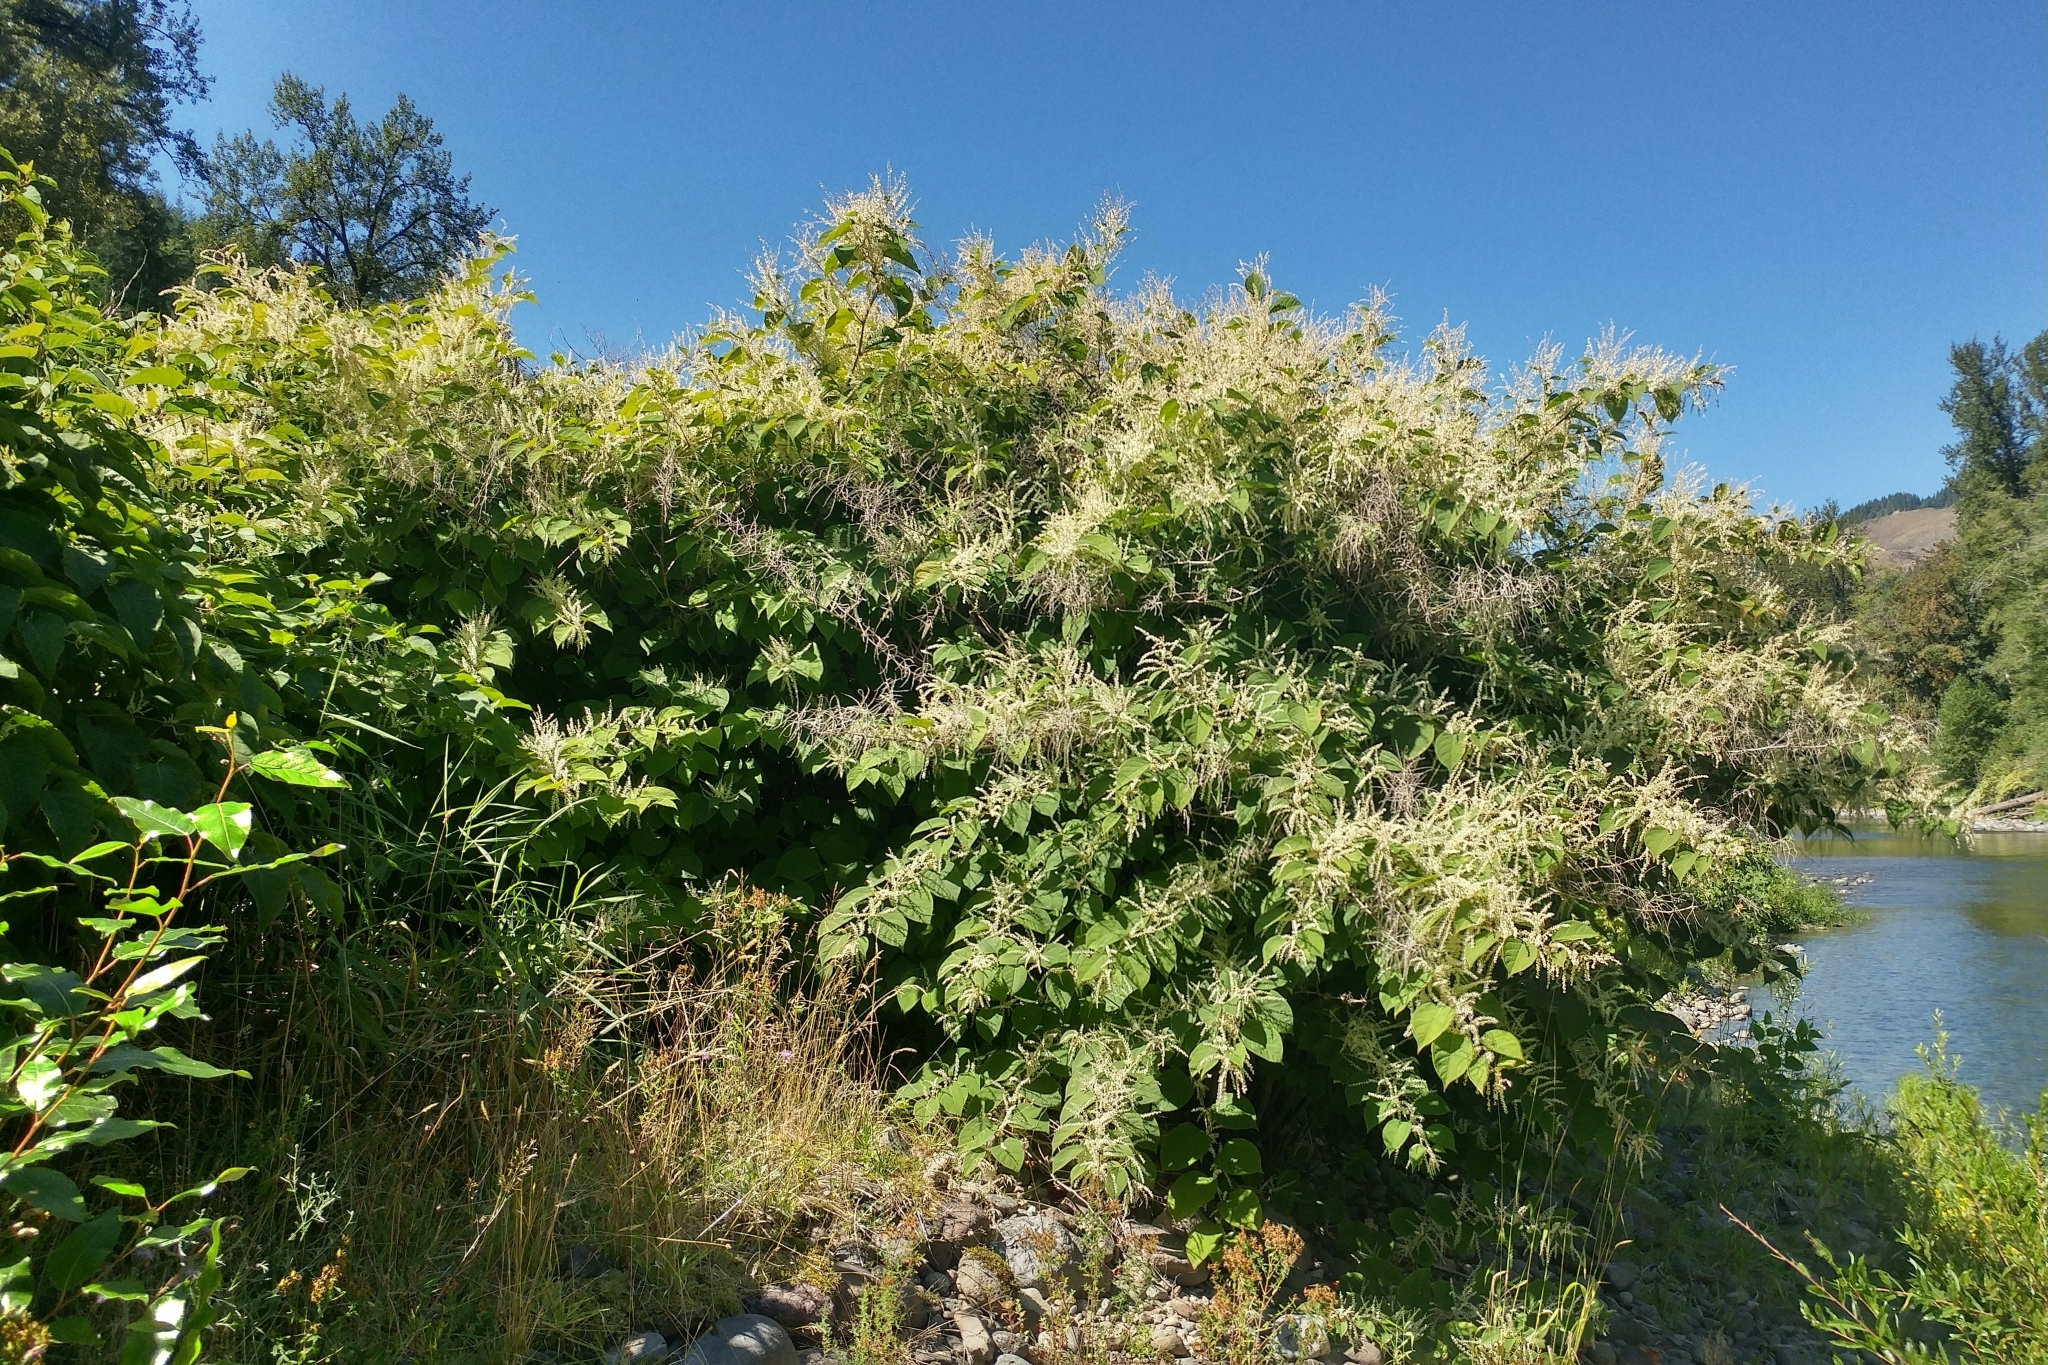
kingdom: Plantae
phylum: Tracheophyta
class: Magnoliopsida
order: Caryophyllales
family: Polygonaceae
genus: Reynoutria
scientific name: Reynoutria japonica
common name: Japanese knotweed
